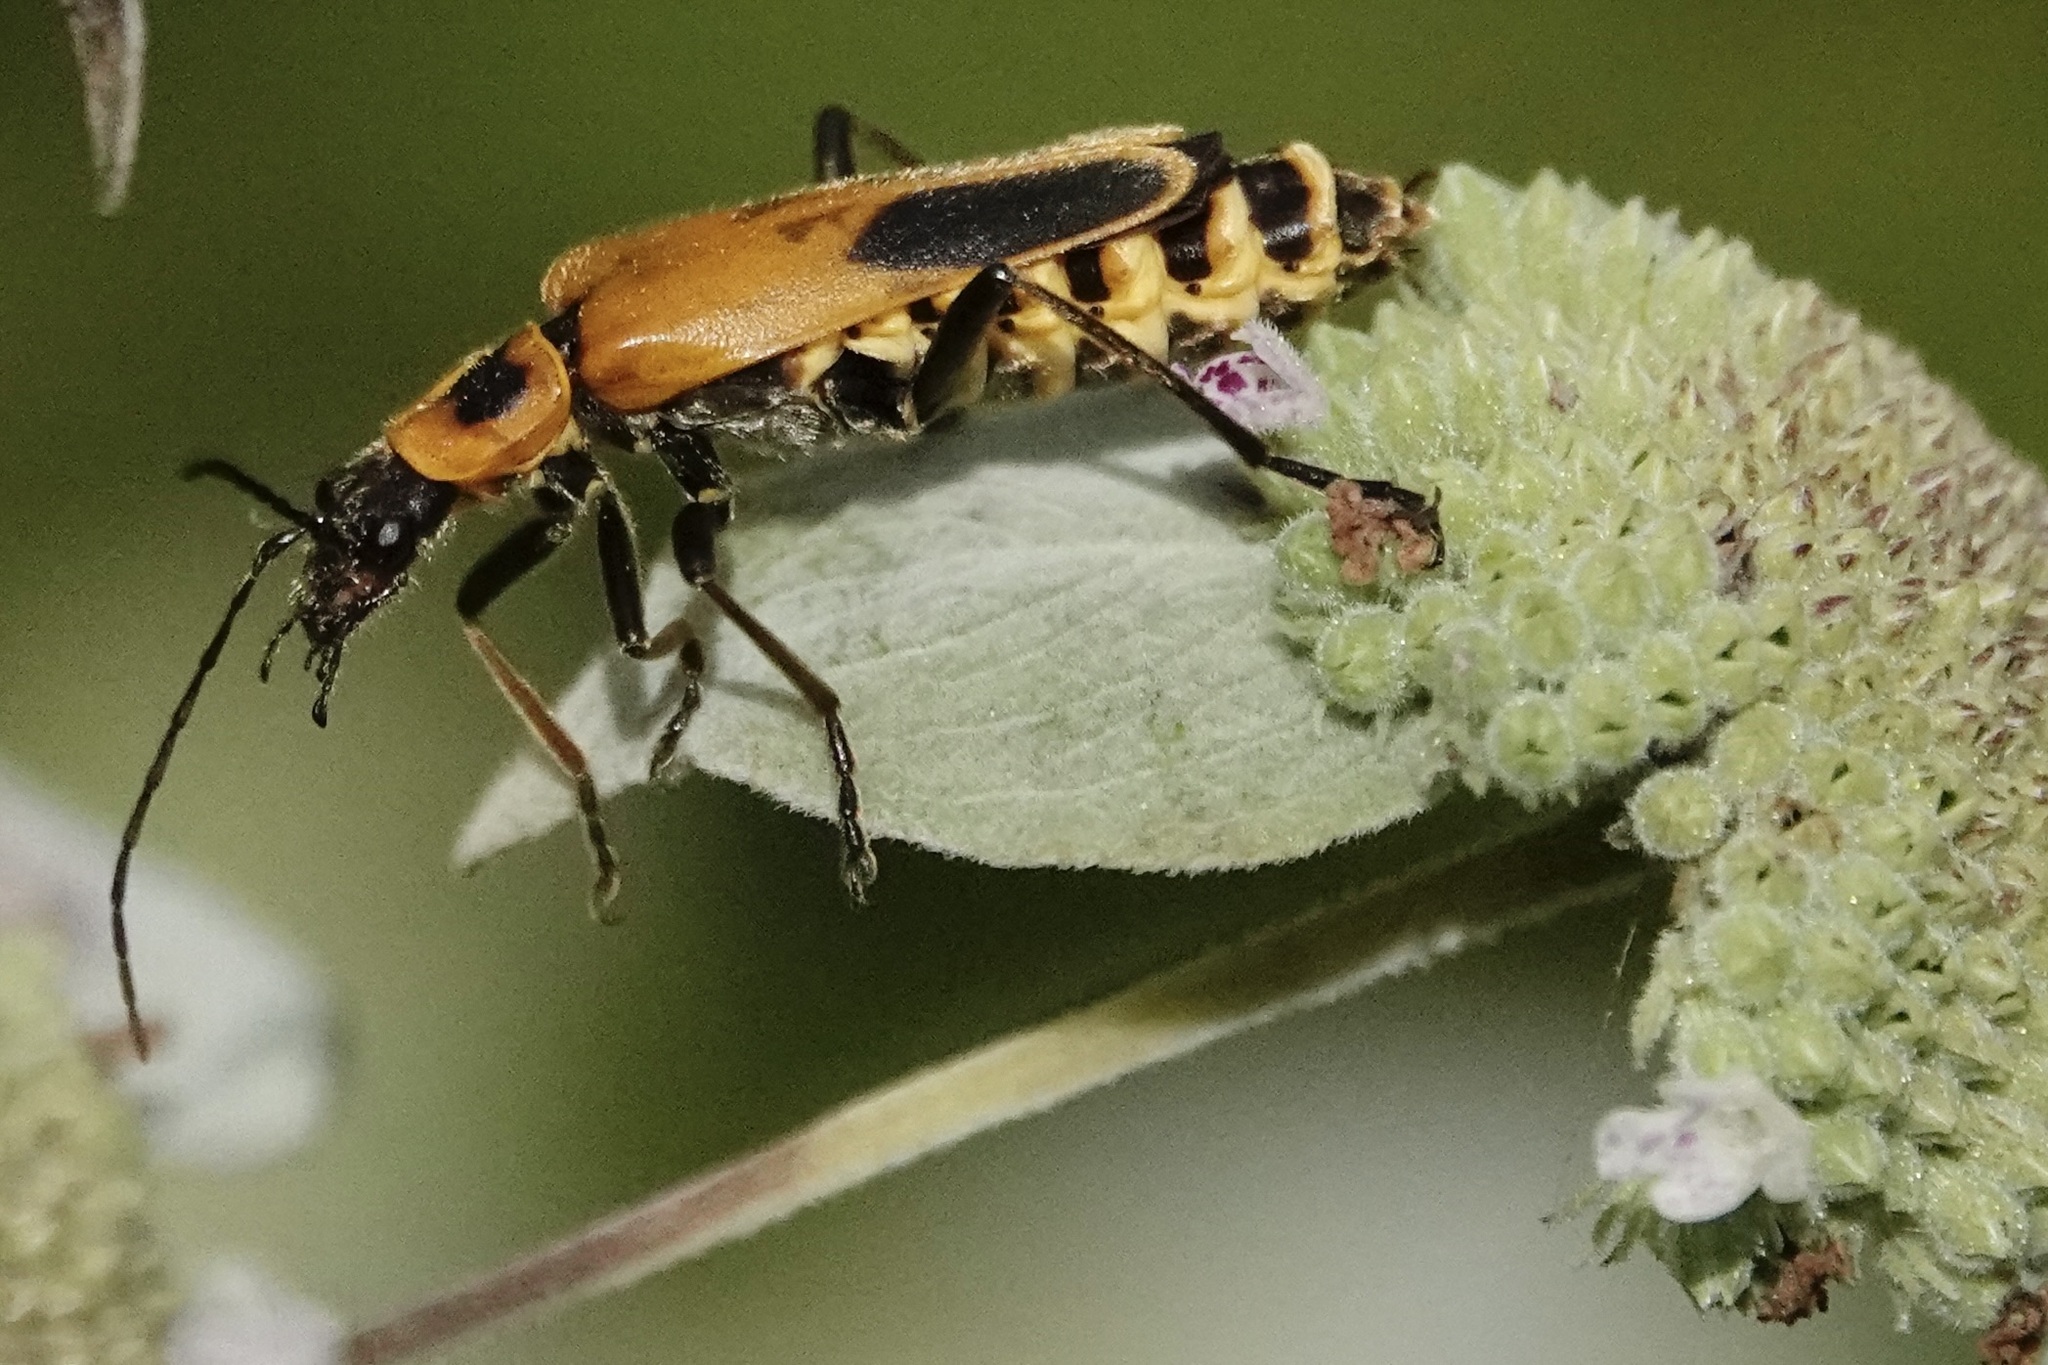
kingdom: Animalia
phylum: Arthropoda
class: Insecta
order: Coleoptera
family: Cantharidae
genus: Chauliognathus
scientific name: Chauliognathus pensylvanicus
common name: Goldenrod soldier beetle
